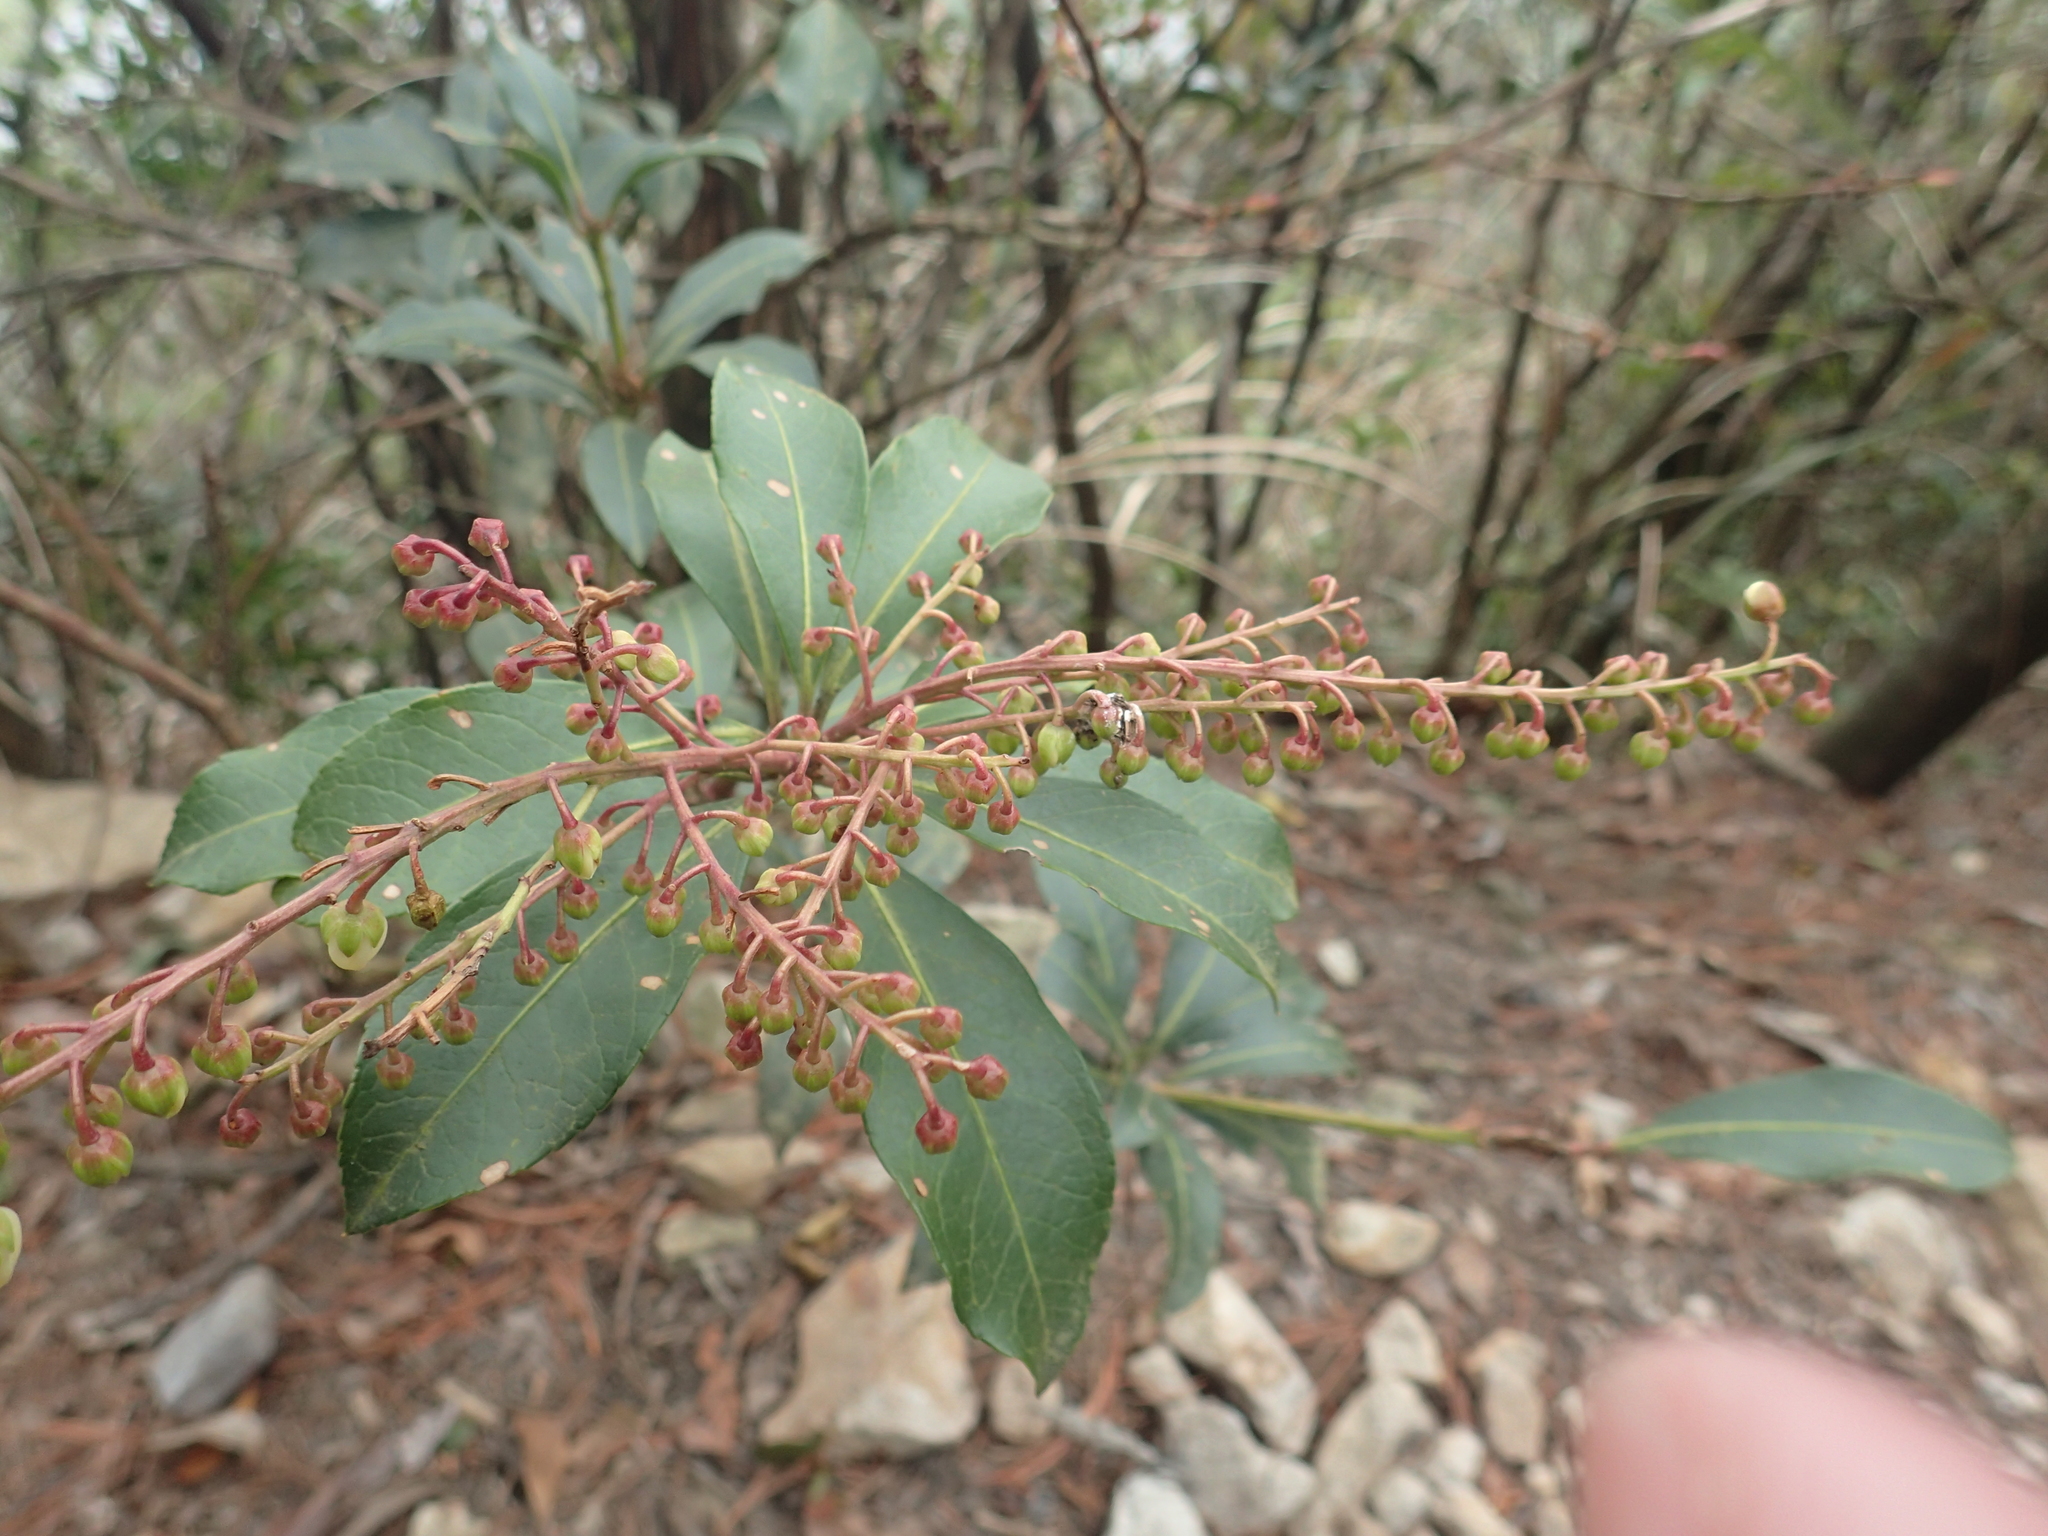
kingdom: Plantae
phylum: Tracheophyta
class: Magnoliopsida
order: Ericales
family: Ericaceae
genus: Pieris
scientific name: Pieris japonica
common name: Japanese pieris
